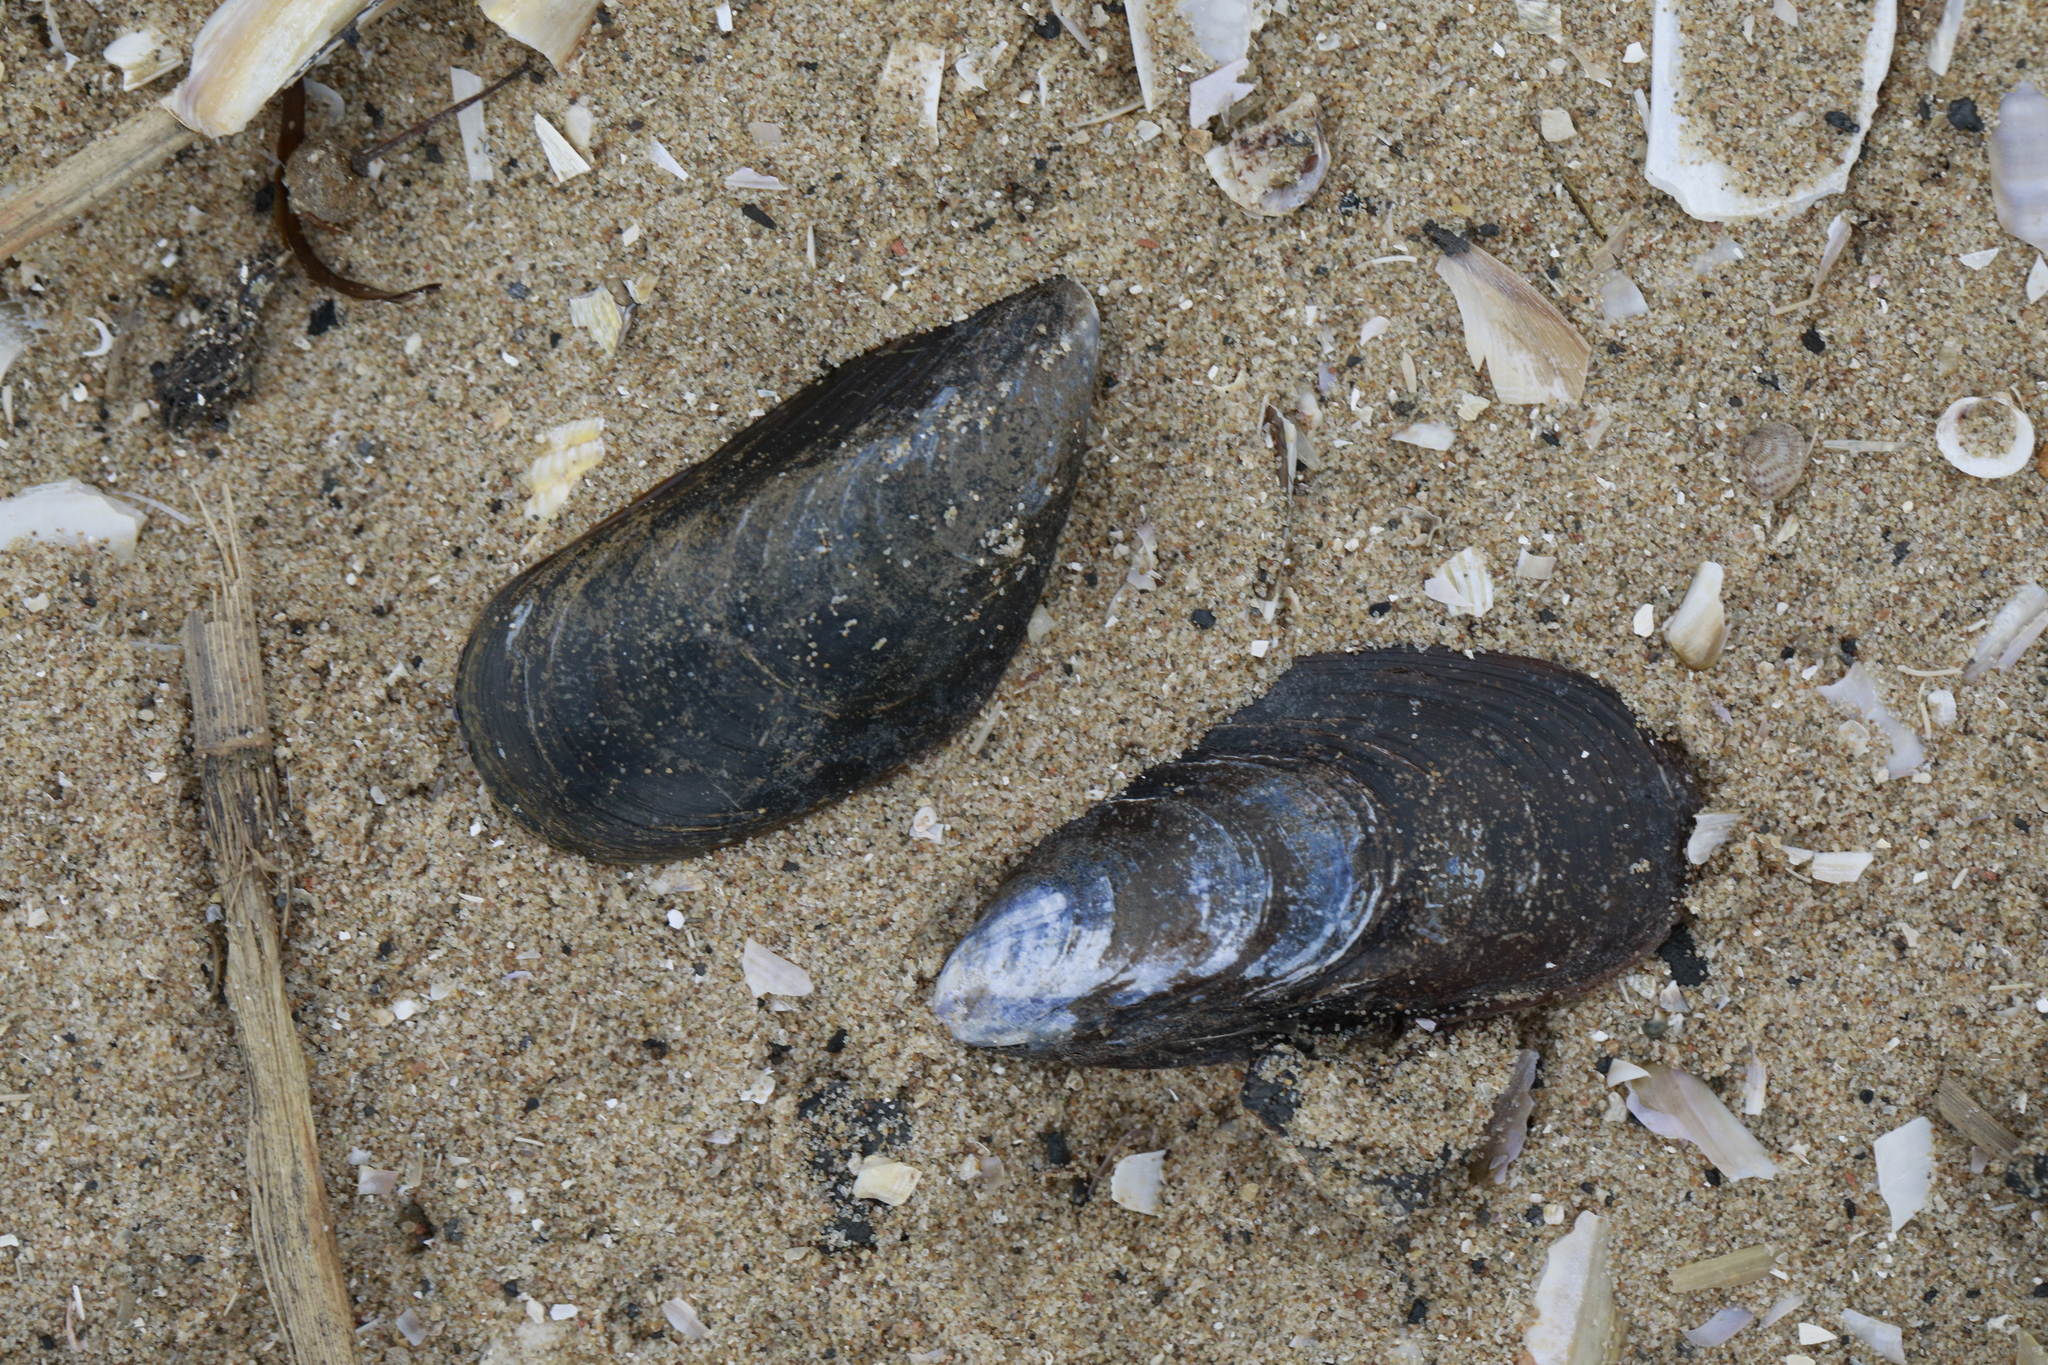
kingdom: Animalia
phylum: Mollusca
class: Bivalvia
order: Mytilida
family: Mytilidae
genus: Mytilus
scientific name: Mytilus edulis
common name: Blue mussel
